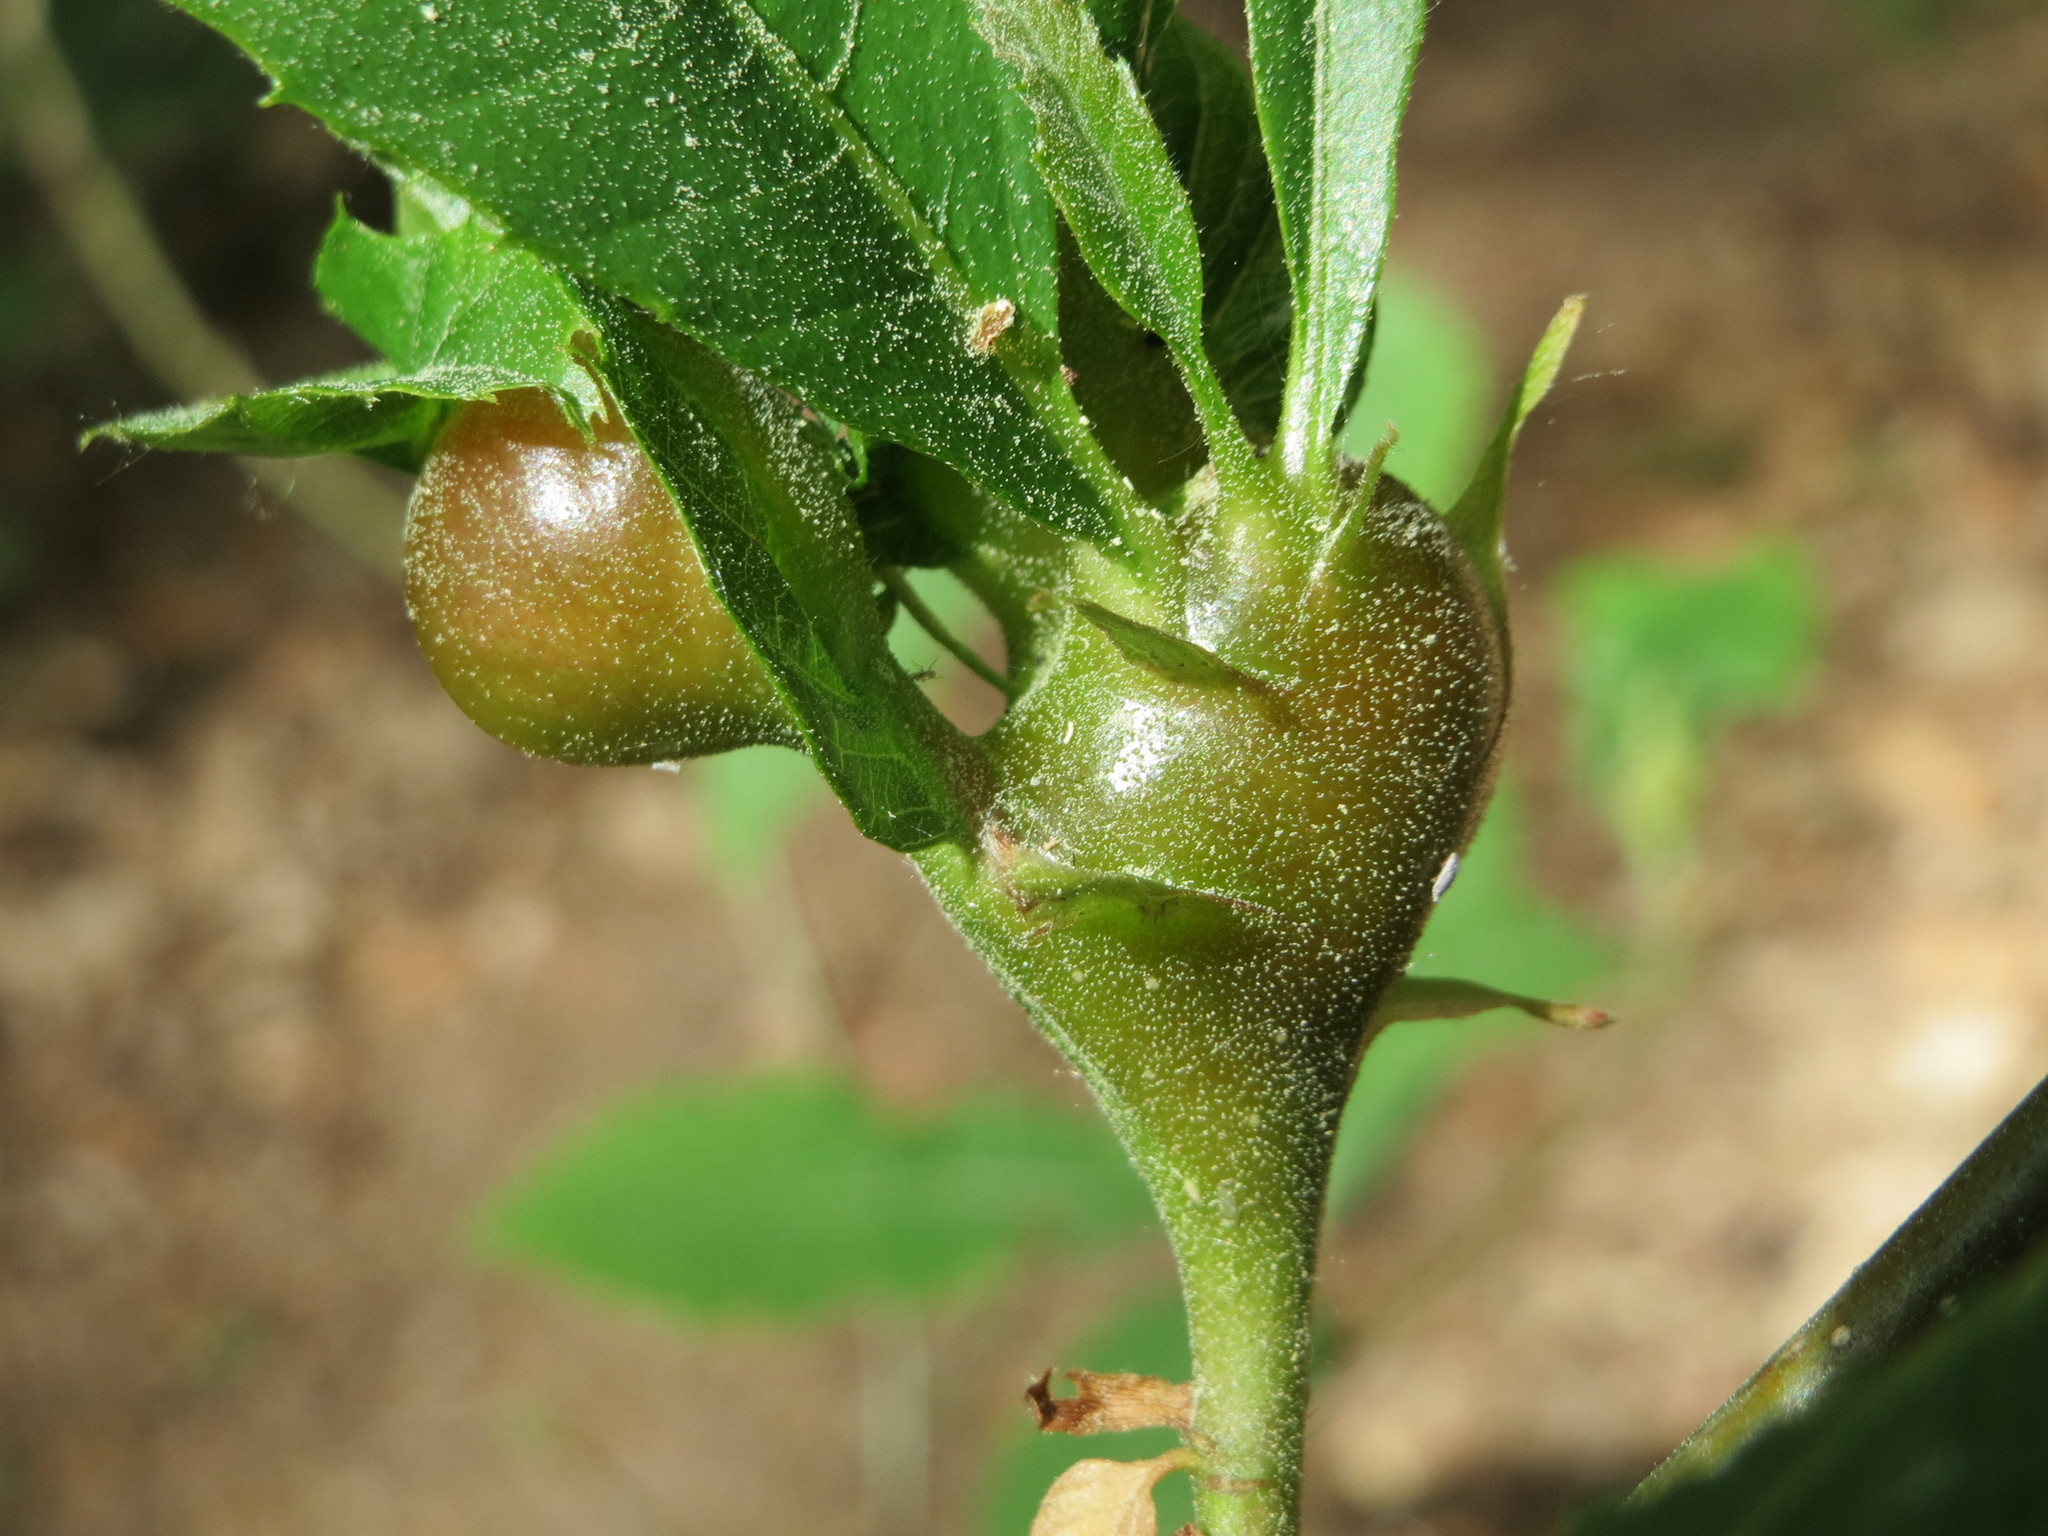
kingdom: Animalia
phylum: Arthropoda
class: Insecta
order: Hymenoptera
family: Cynipidae
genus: Dryocosmus
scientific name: Dryocosmus kuriphilus
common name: Asian chestnut gall wasp
